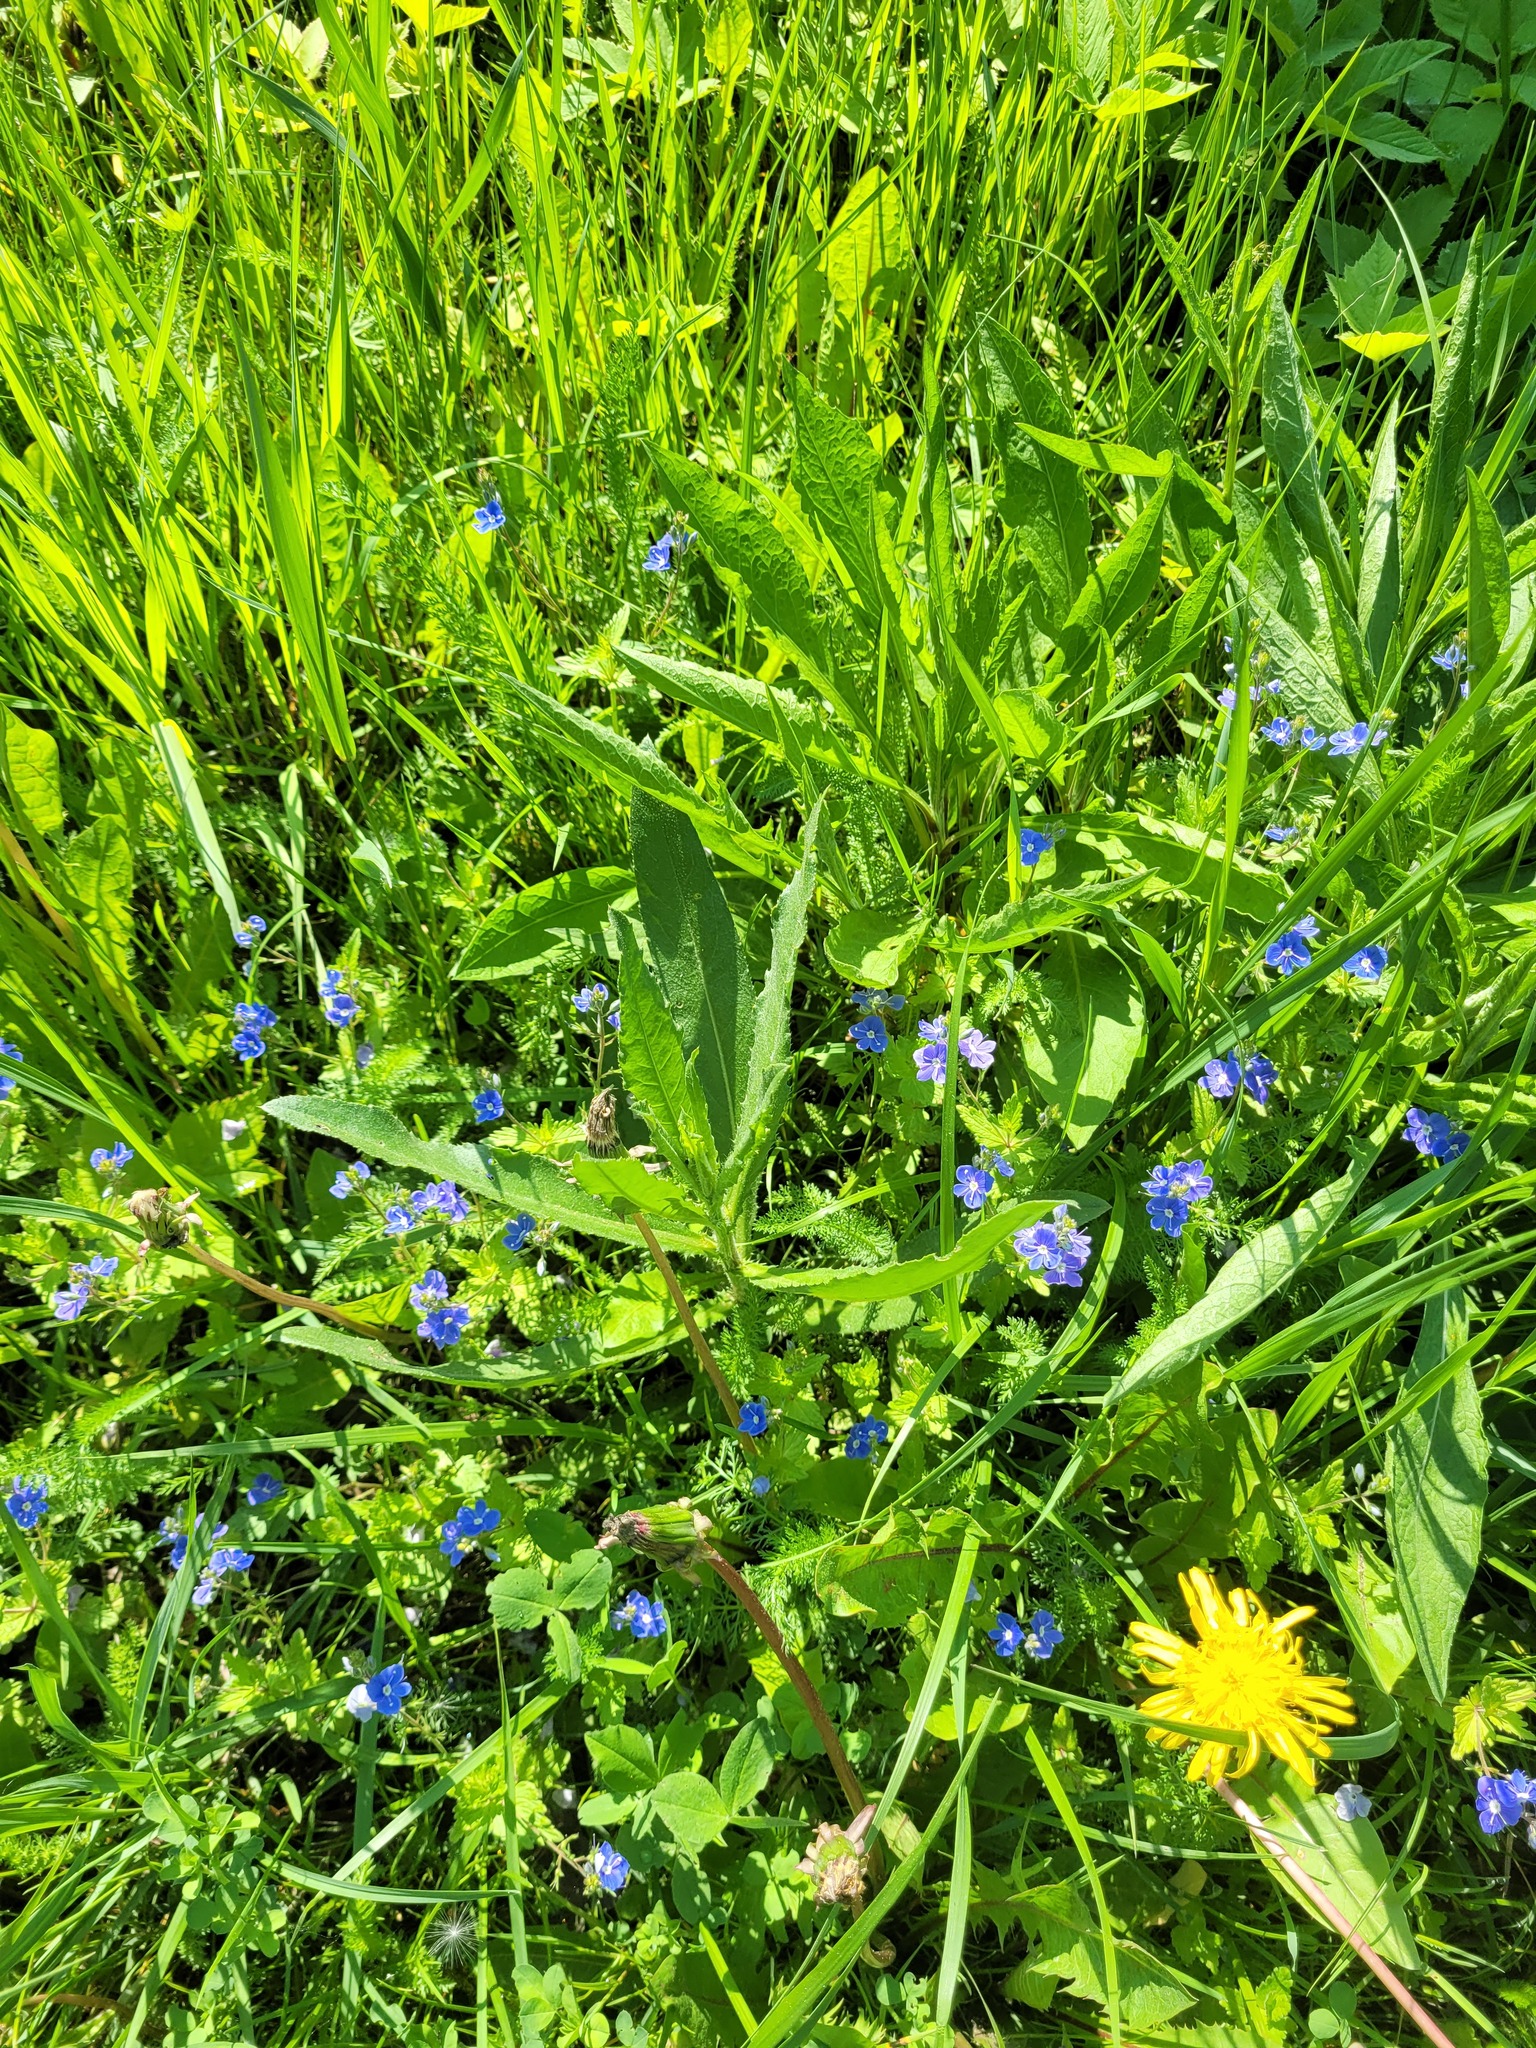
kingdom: Plantae
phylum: Tracheophyta
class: Magnoliopsida
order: Asterales
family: Asteraceae
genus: Cirsium
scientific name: Cirsium arvense
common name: Creeping thistle
